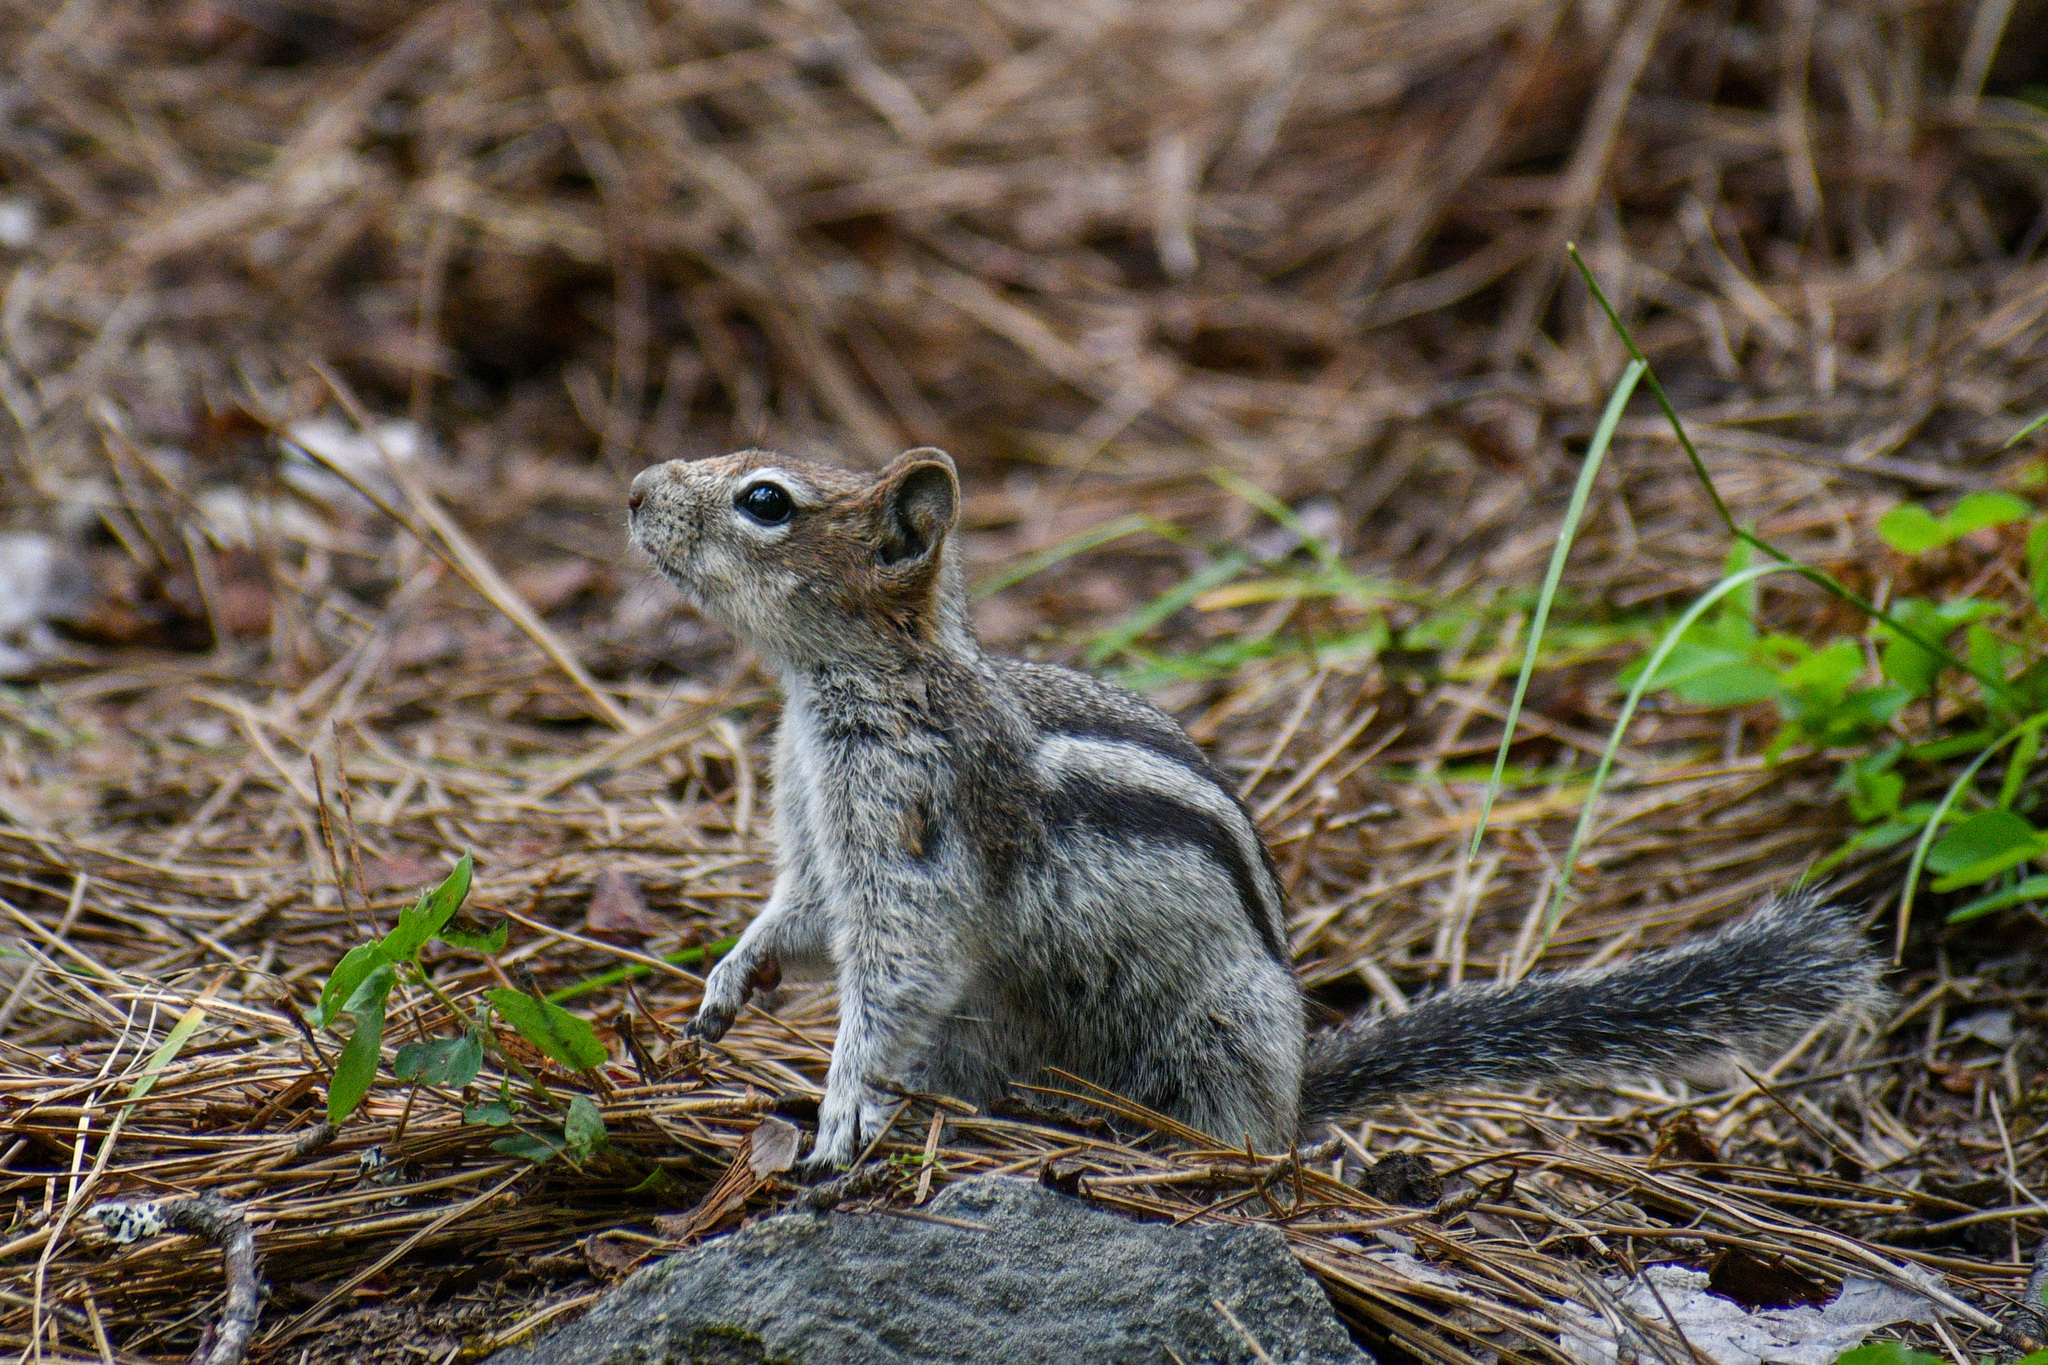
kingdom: Animalia
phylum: Chordata
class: Mammalia
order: Rodentia
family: Sciuridae
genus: Callospermophilus
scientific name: Callospermophilus lateralis
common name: Golden-mantled ground squirrel
